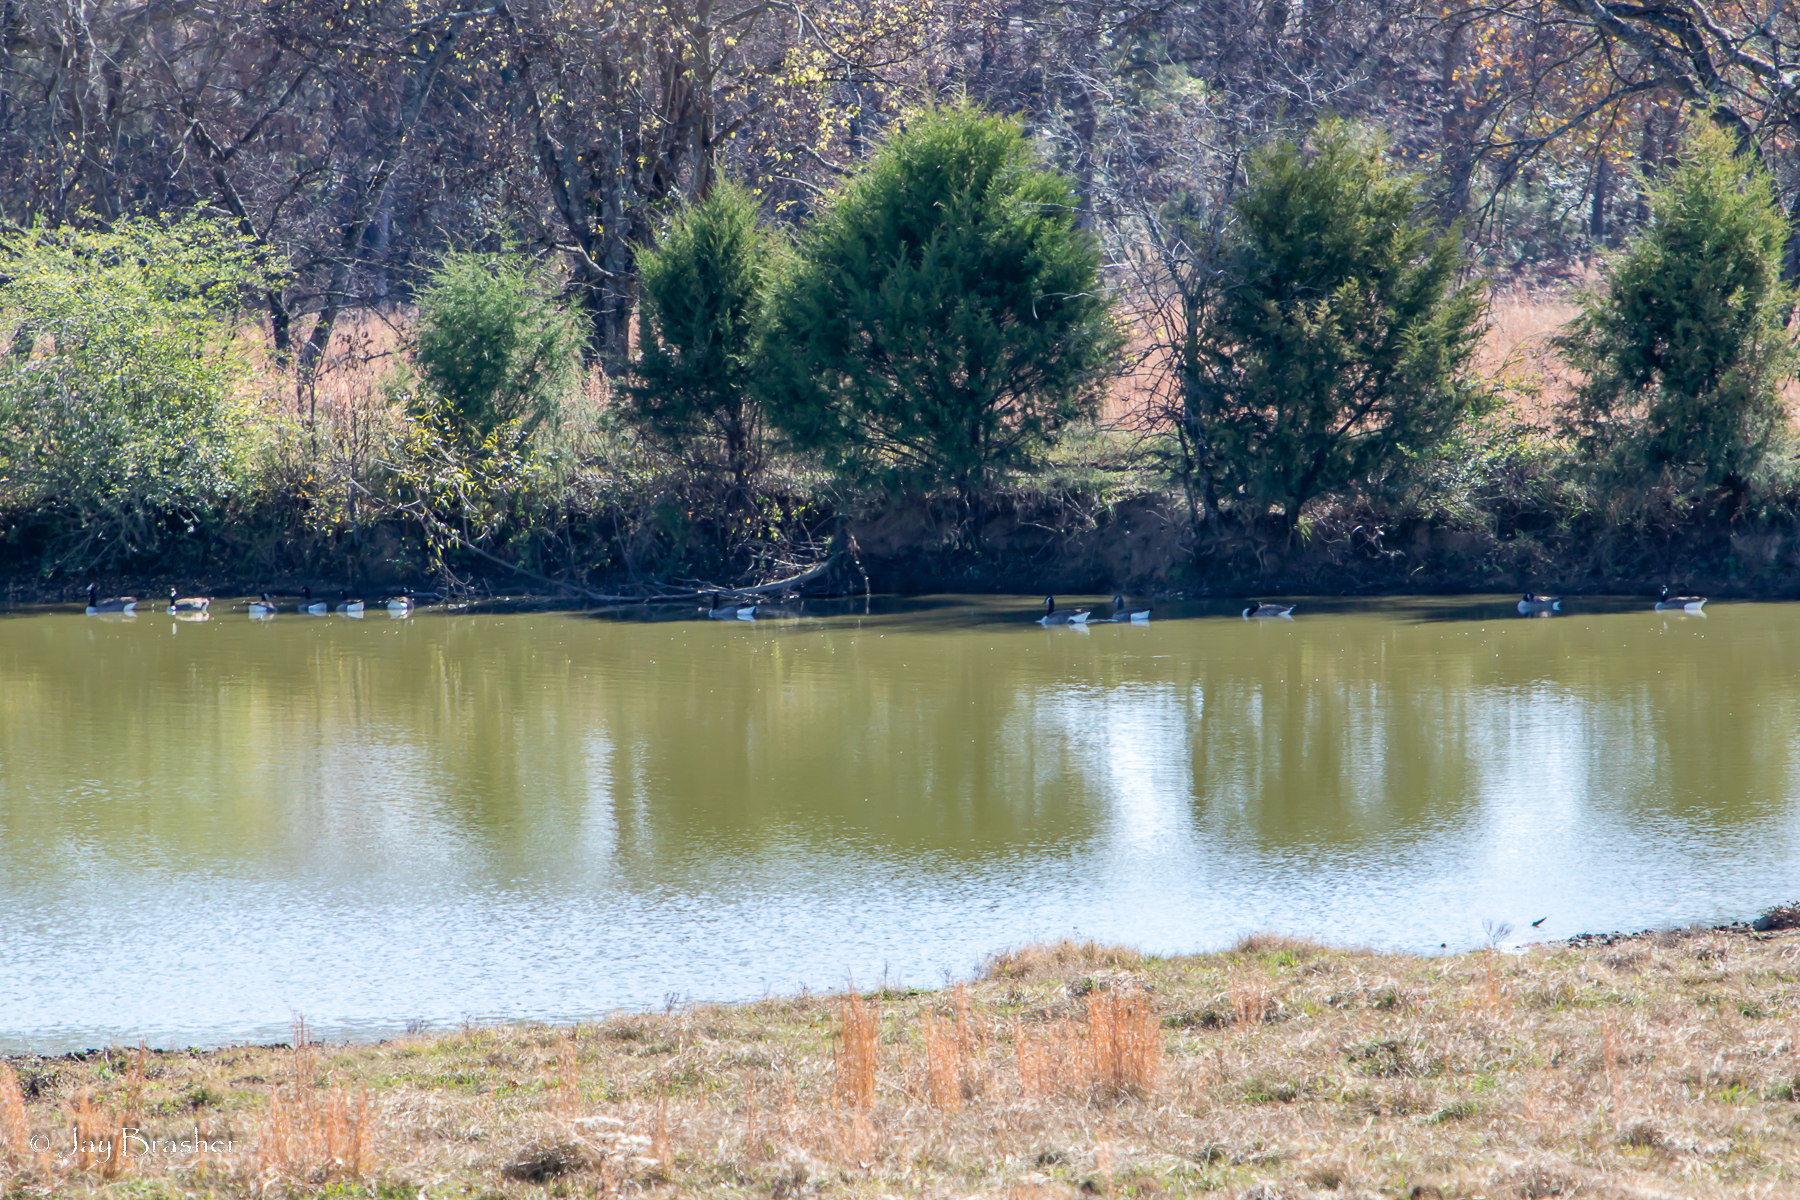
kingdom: Animalia
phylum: Chordata
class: Aves
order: Anseriformes
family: Anatidae
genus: Branta
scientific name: Branta canadensis
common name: Canada goose
